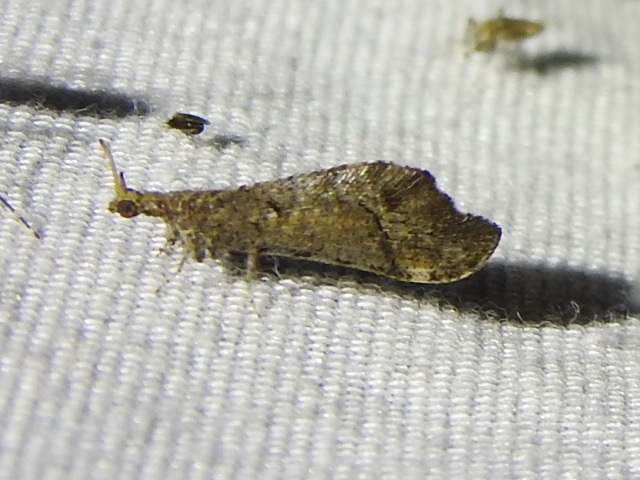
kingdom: Animalia
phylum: Arthropoda
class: Insecta
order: Neuroptera
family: Berothidae
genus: Lomamyia
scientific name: Lomamyia
